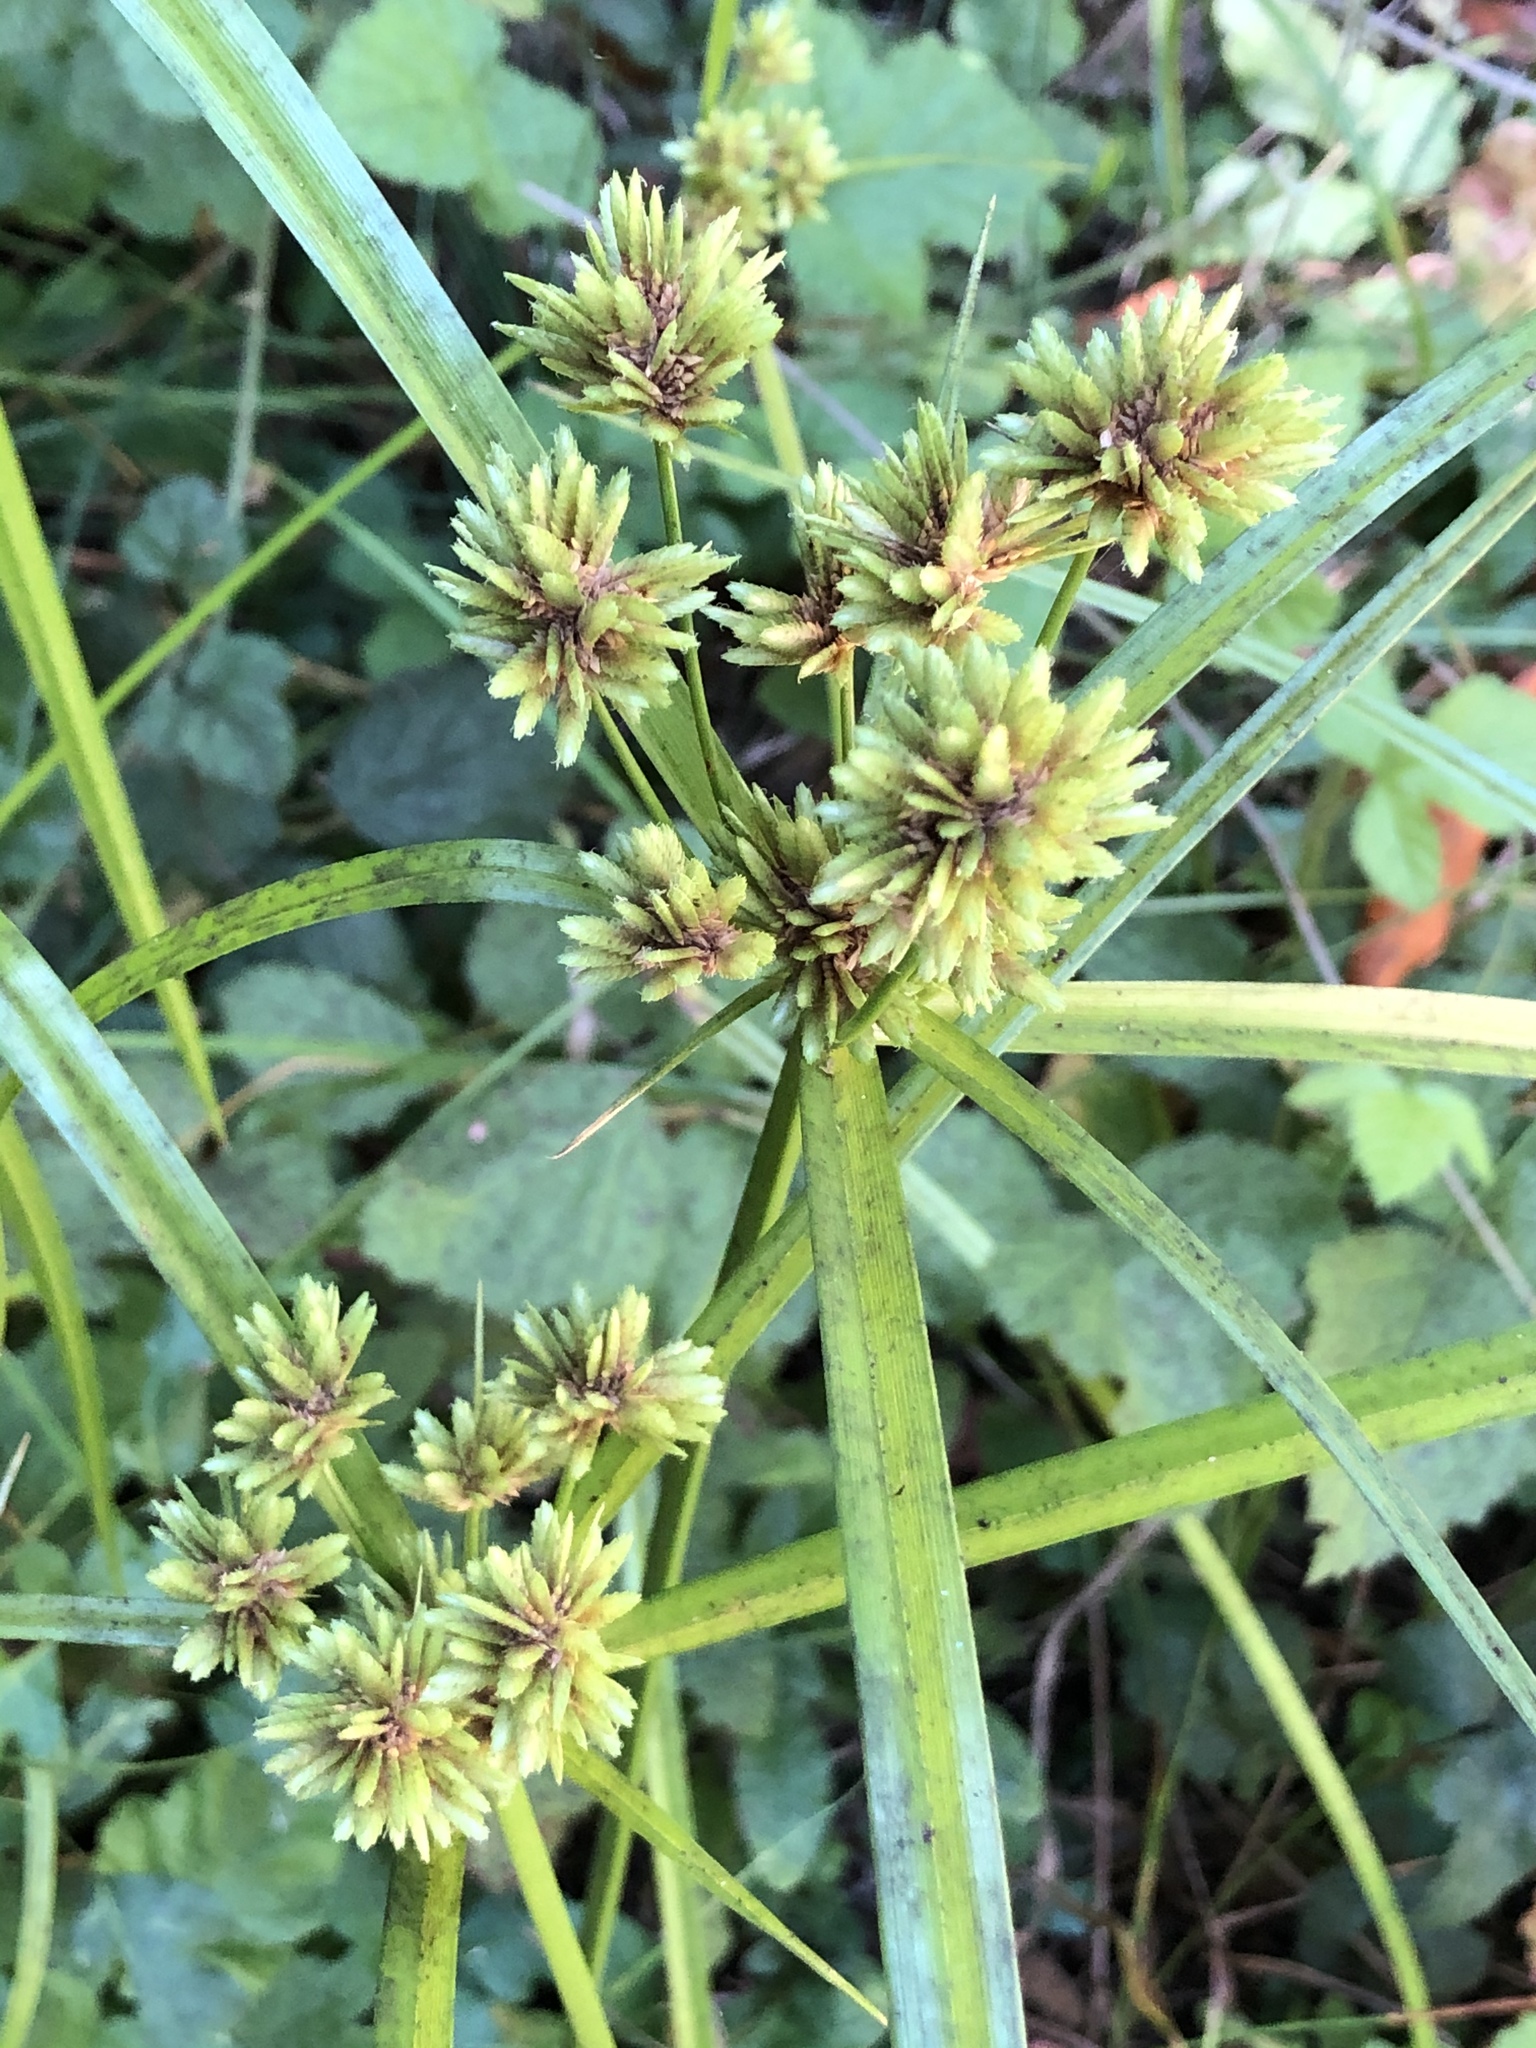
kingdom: Plantae
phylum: Tracheophyta
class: Liliopsida
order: Poales
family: Cyperaceae
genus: Cyperus
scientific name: Cyperus eragrostis
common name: Tall flatsedge
